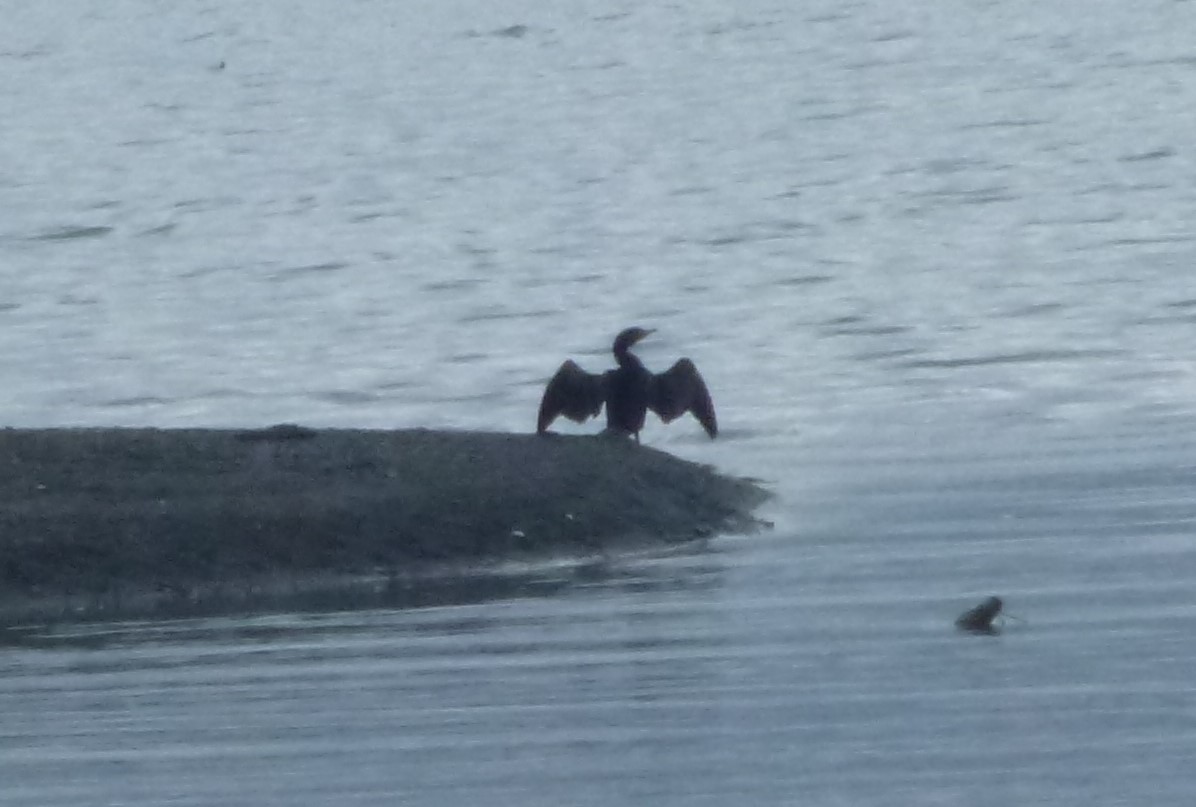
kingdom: Animalia
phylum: Chordata
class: Aves
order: Suliformes
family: Phalacrocoracidae
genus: Phalacrocorax
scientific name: Phalacrocorax auritus
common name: Double-crested cormorant
